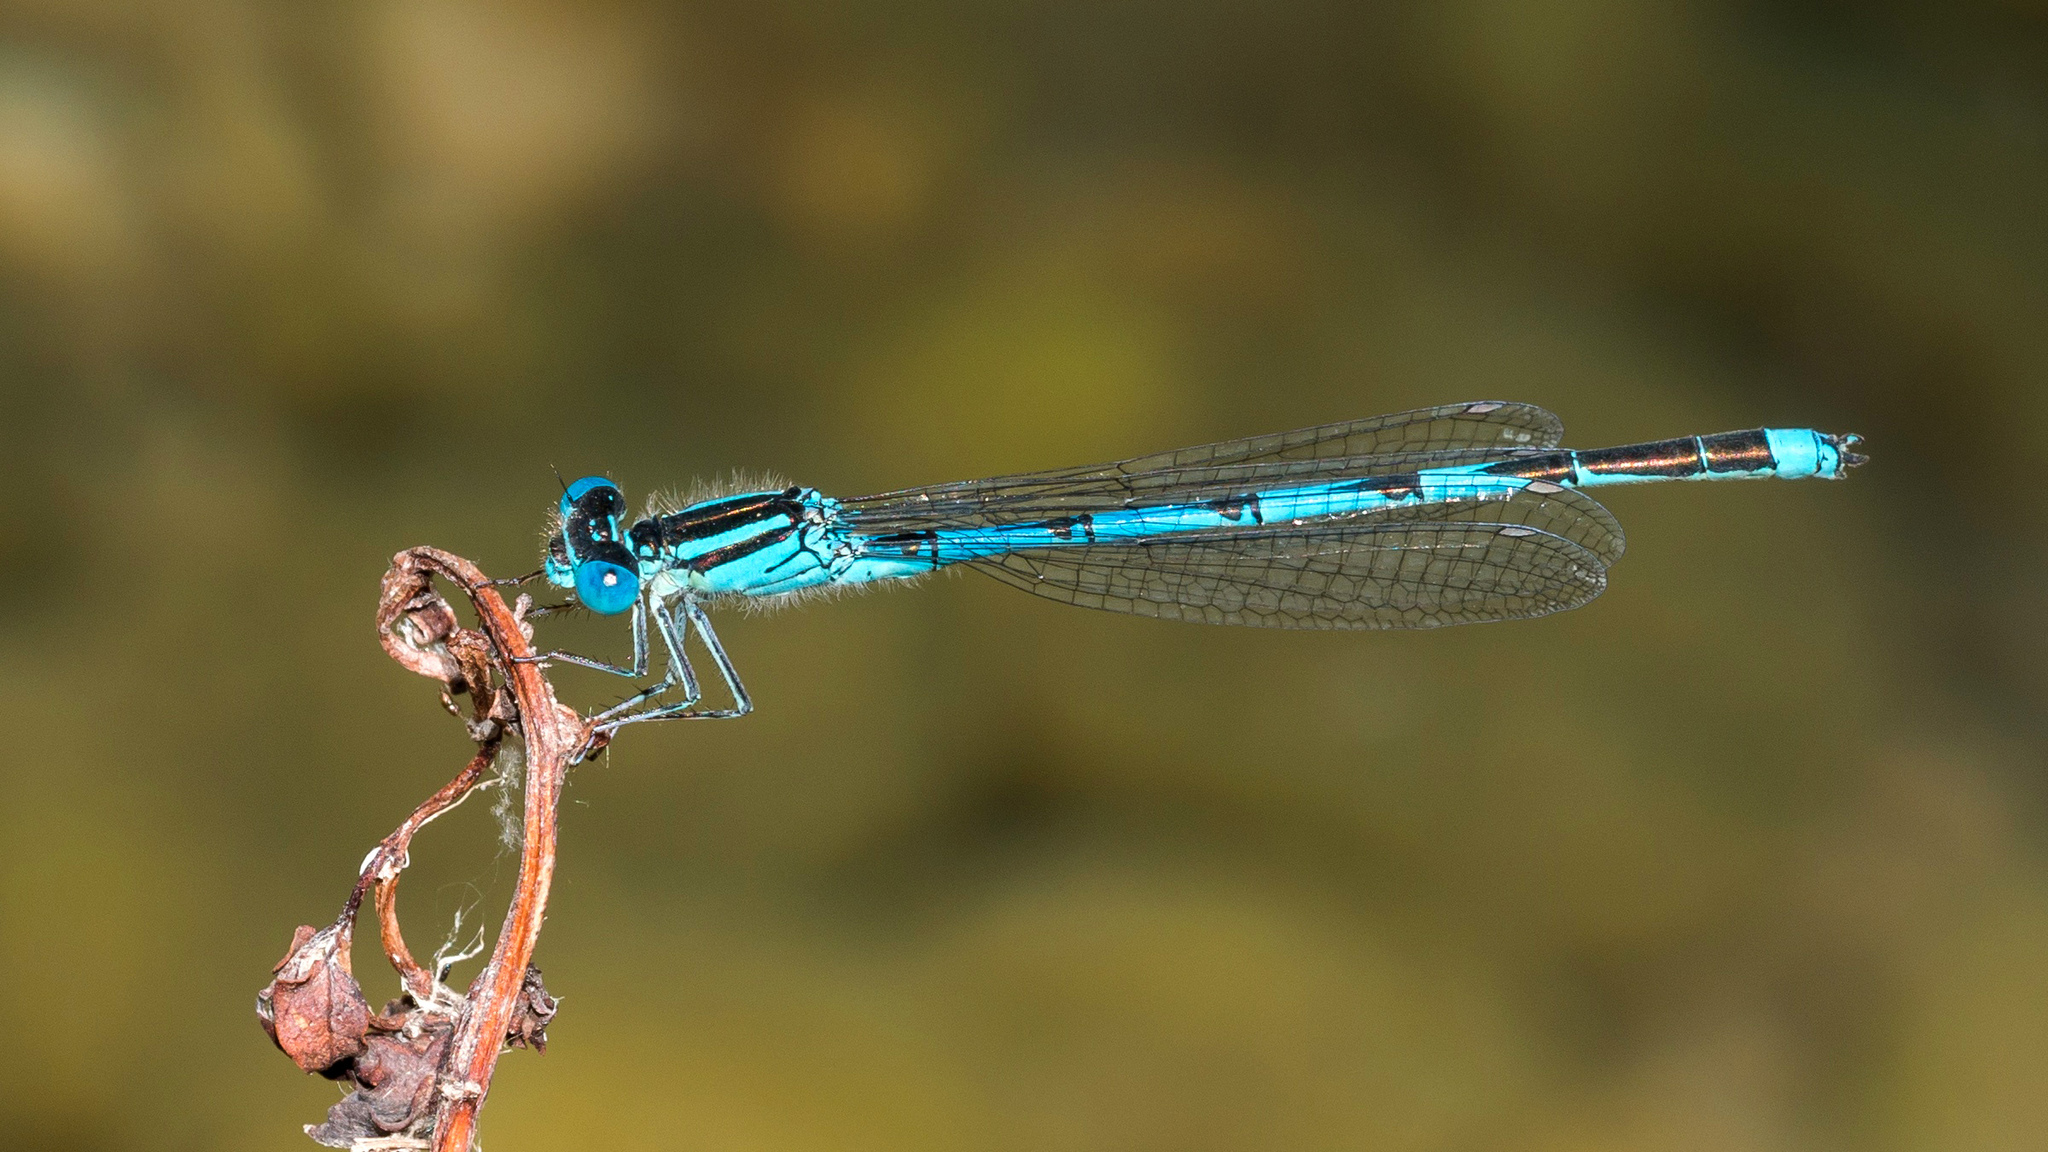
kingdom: Animalia
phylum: Arthropoda
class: Insecta
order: Odonata
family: Coenagrionidae
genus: Erythromma
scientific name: Erythromma lindenii
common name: Blue-eye
